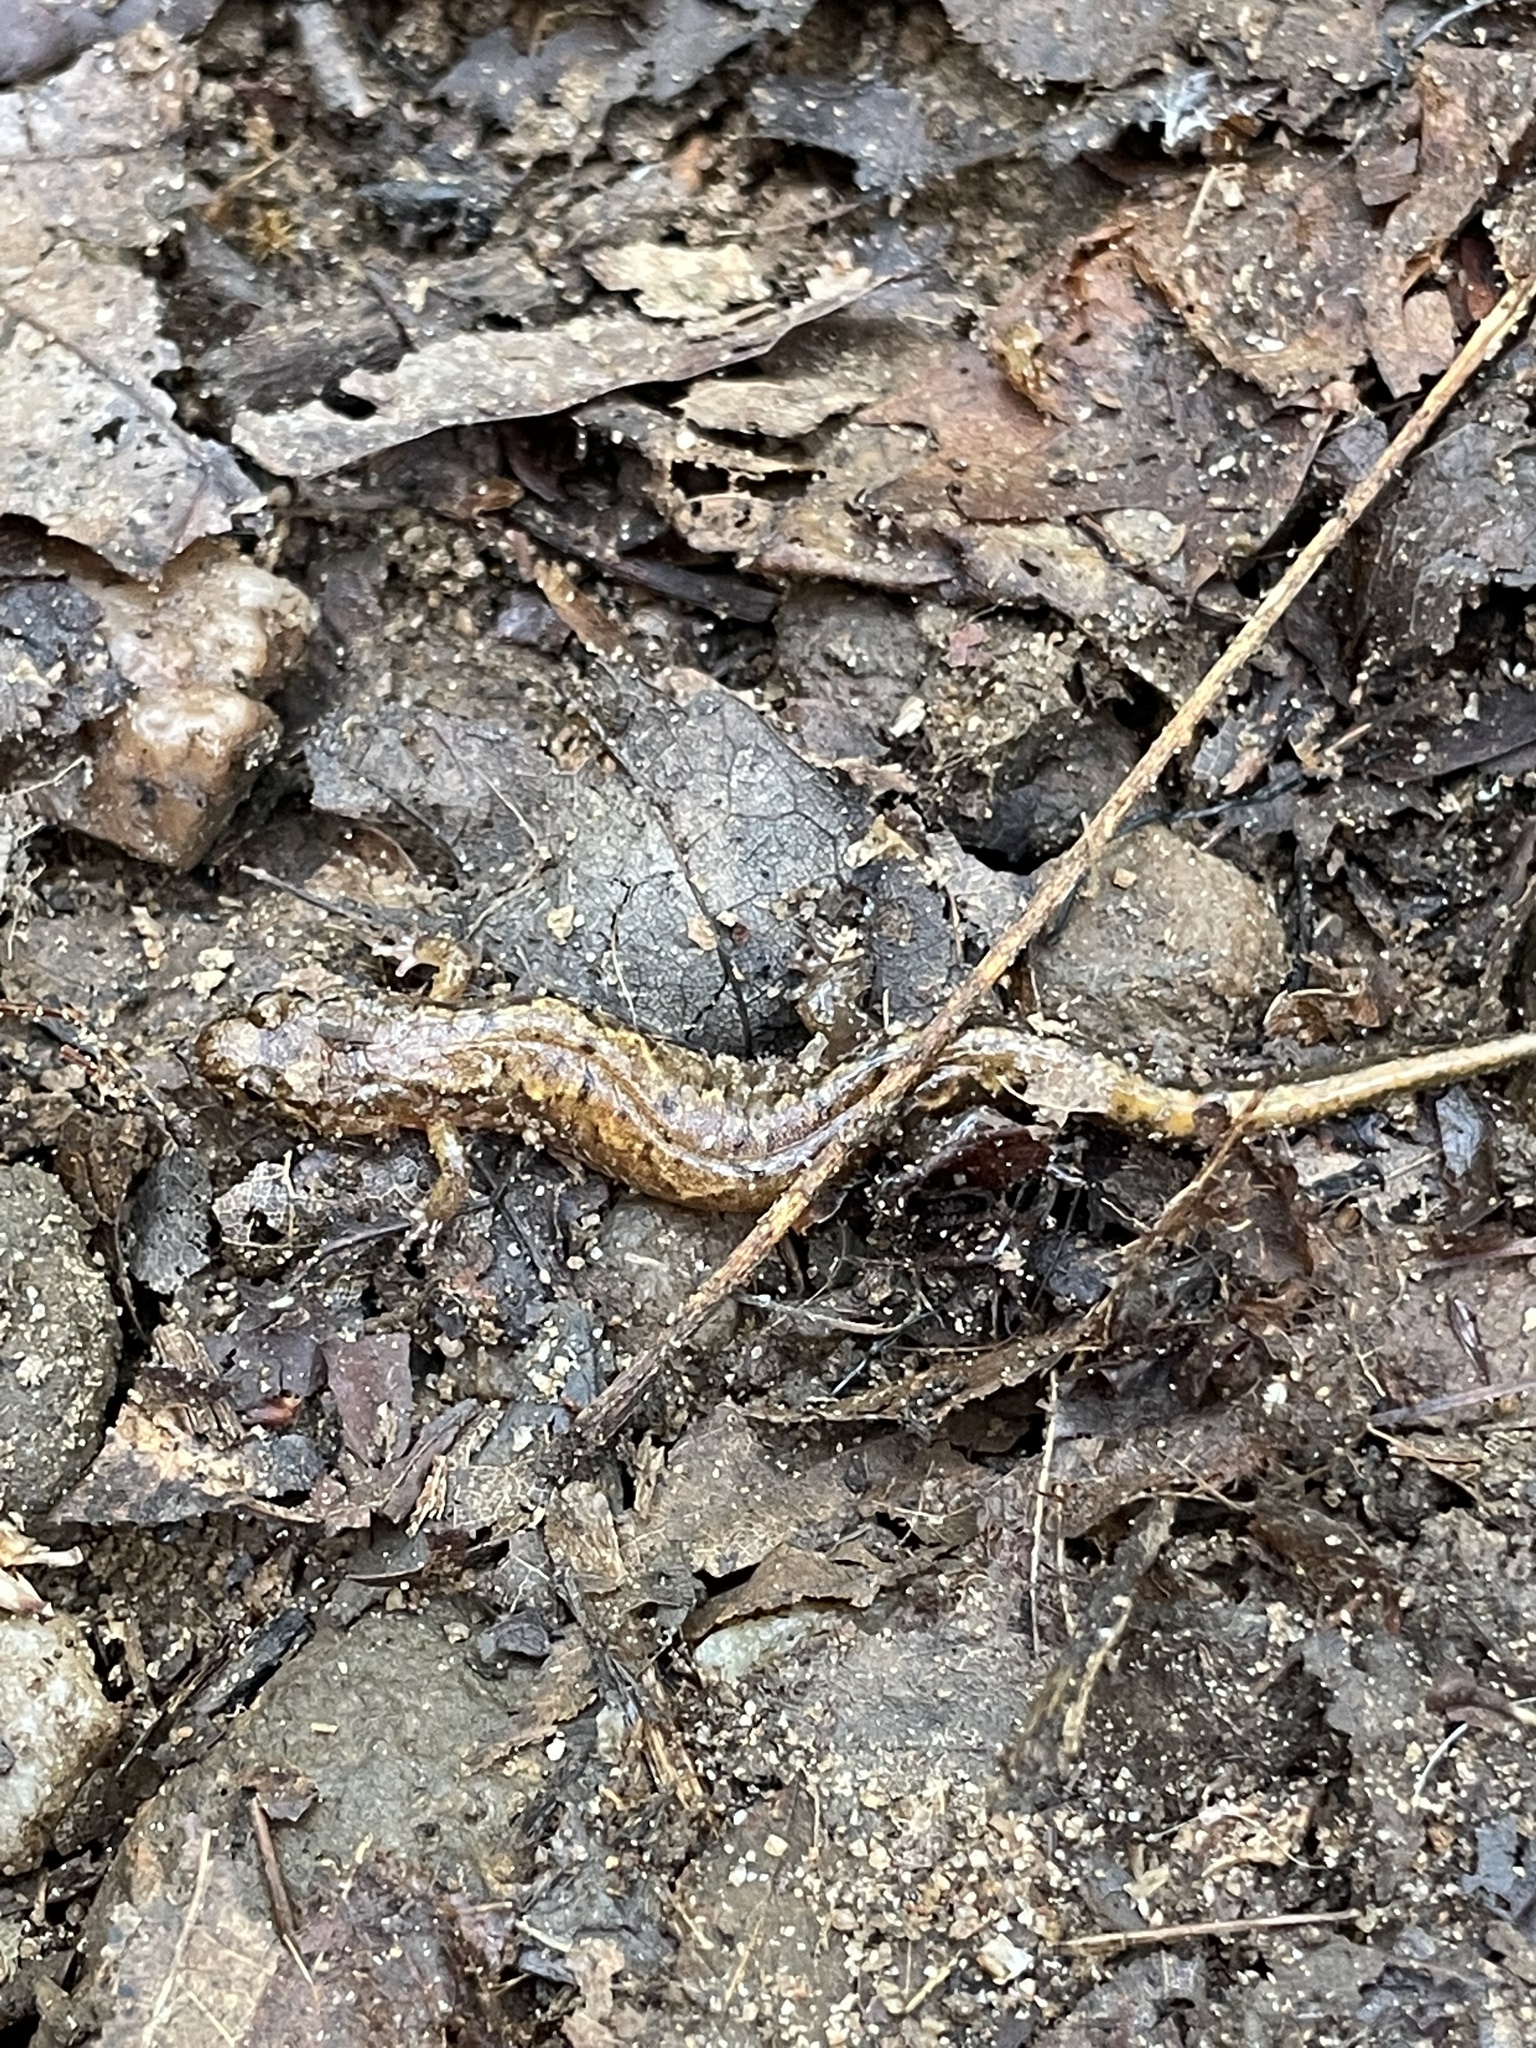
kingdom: Animalia
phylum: Chordata
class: Amphibia
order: Caudata
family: Plethodontidae
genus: Desmognathus
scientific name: Desmognathus ocoee
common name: Ocoee salamander
